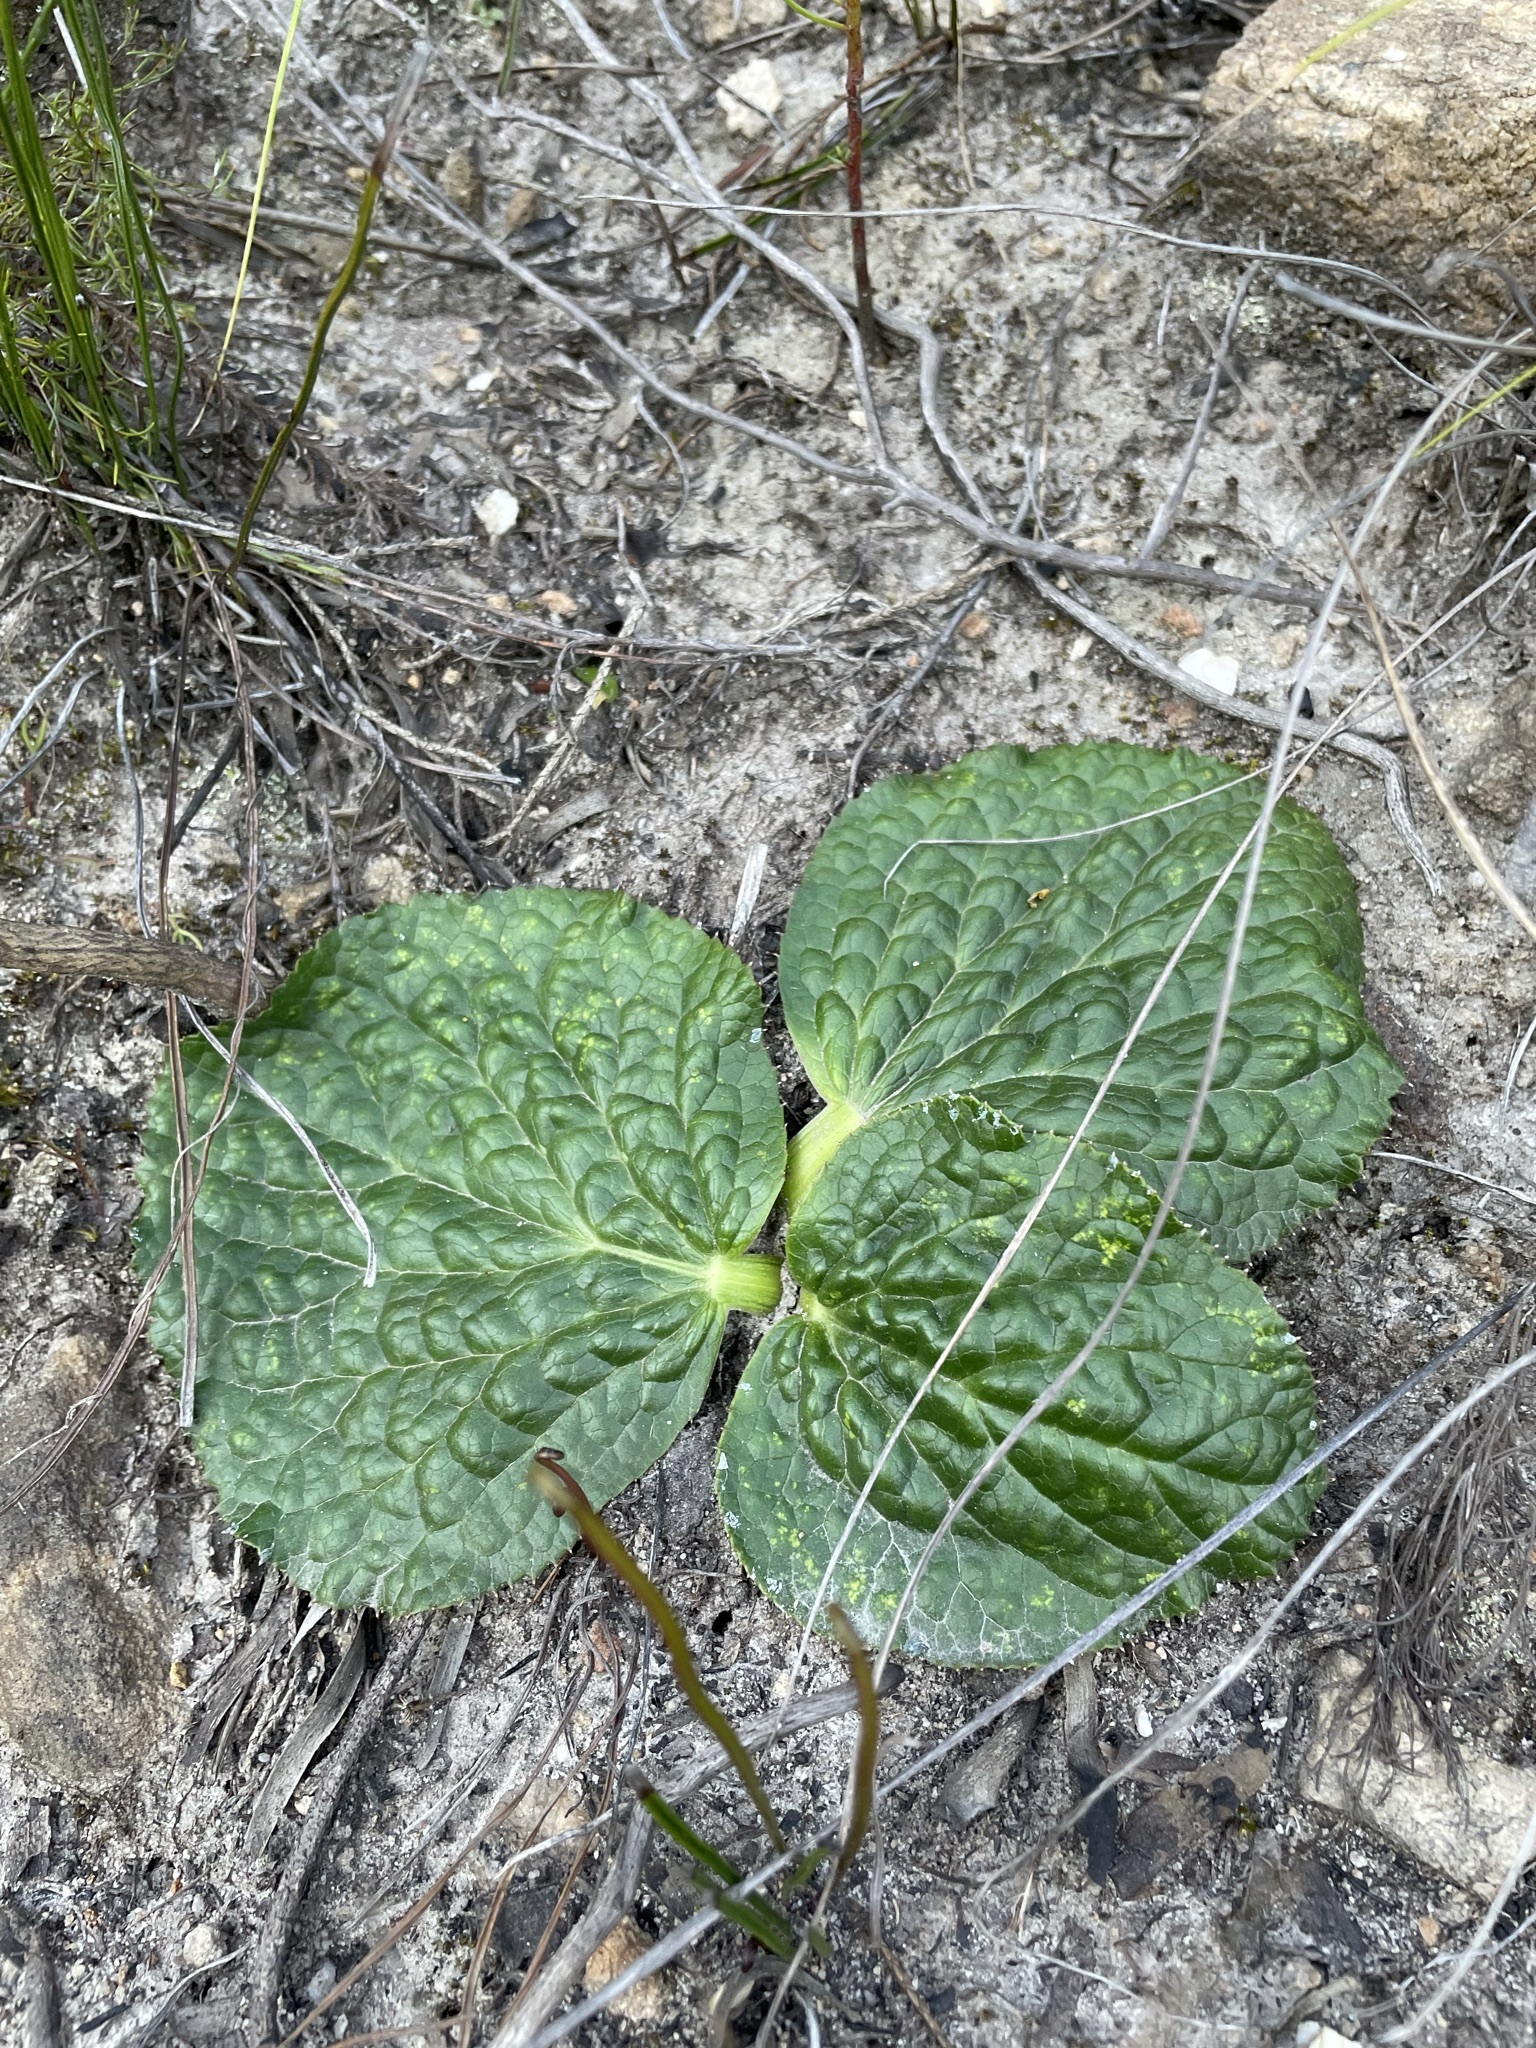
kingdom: Plantae
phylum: Tracheophyta
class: Magnoliopsida
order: Apiales
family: Apiaceae
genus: Lichtensteinia
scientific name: Lichtensteinia latifolia
